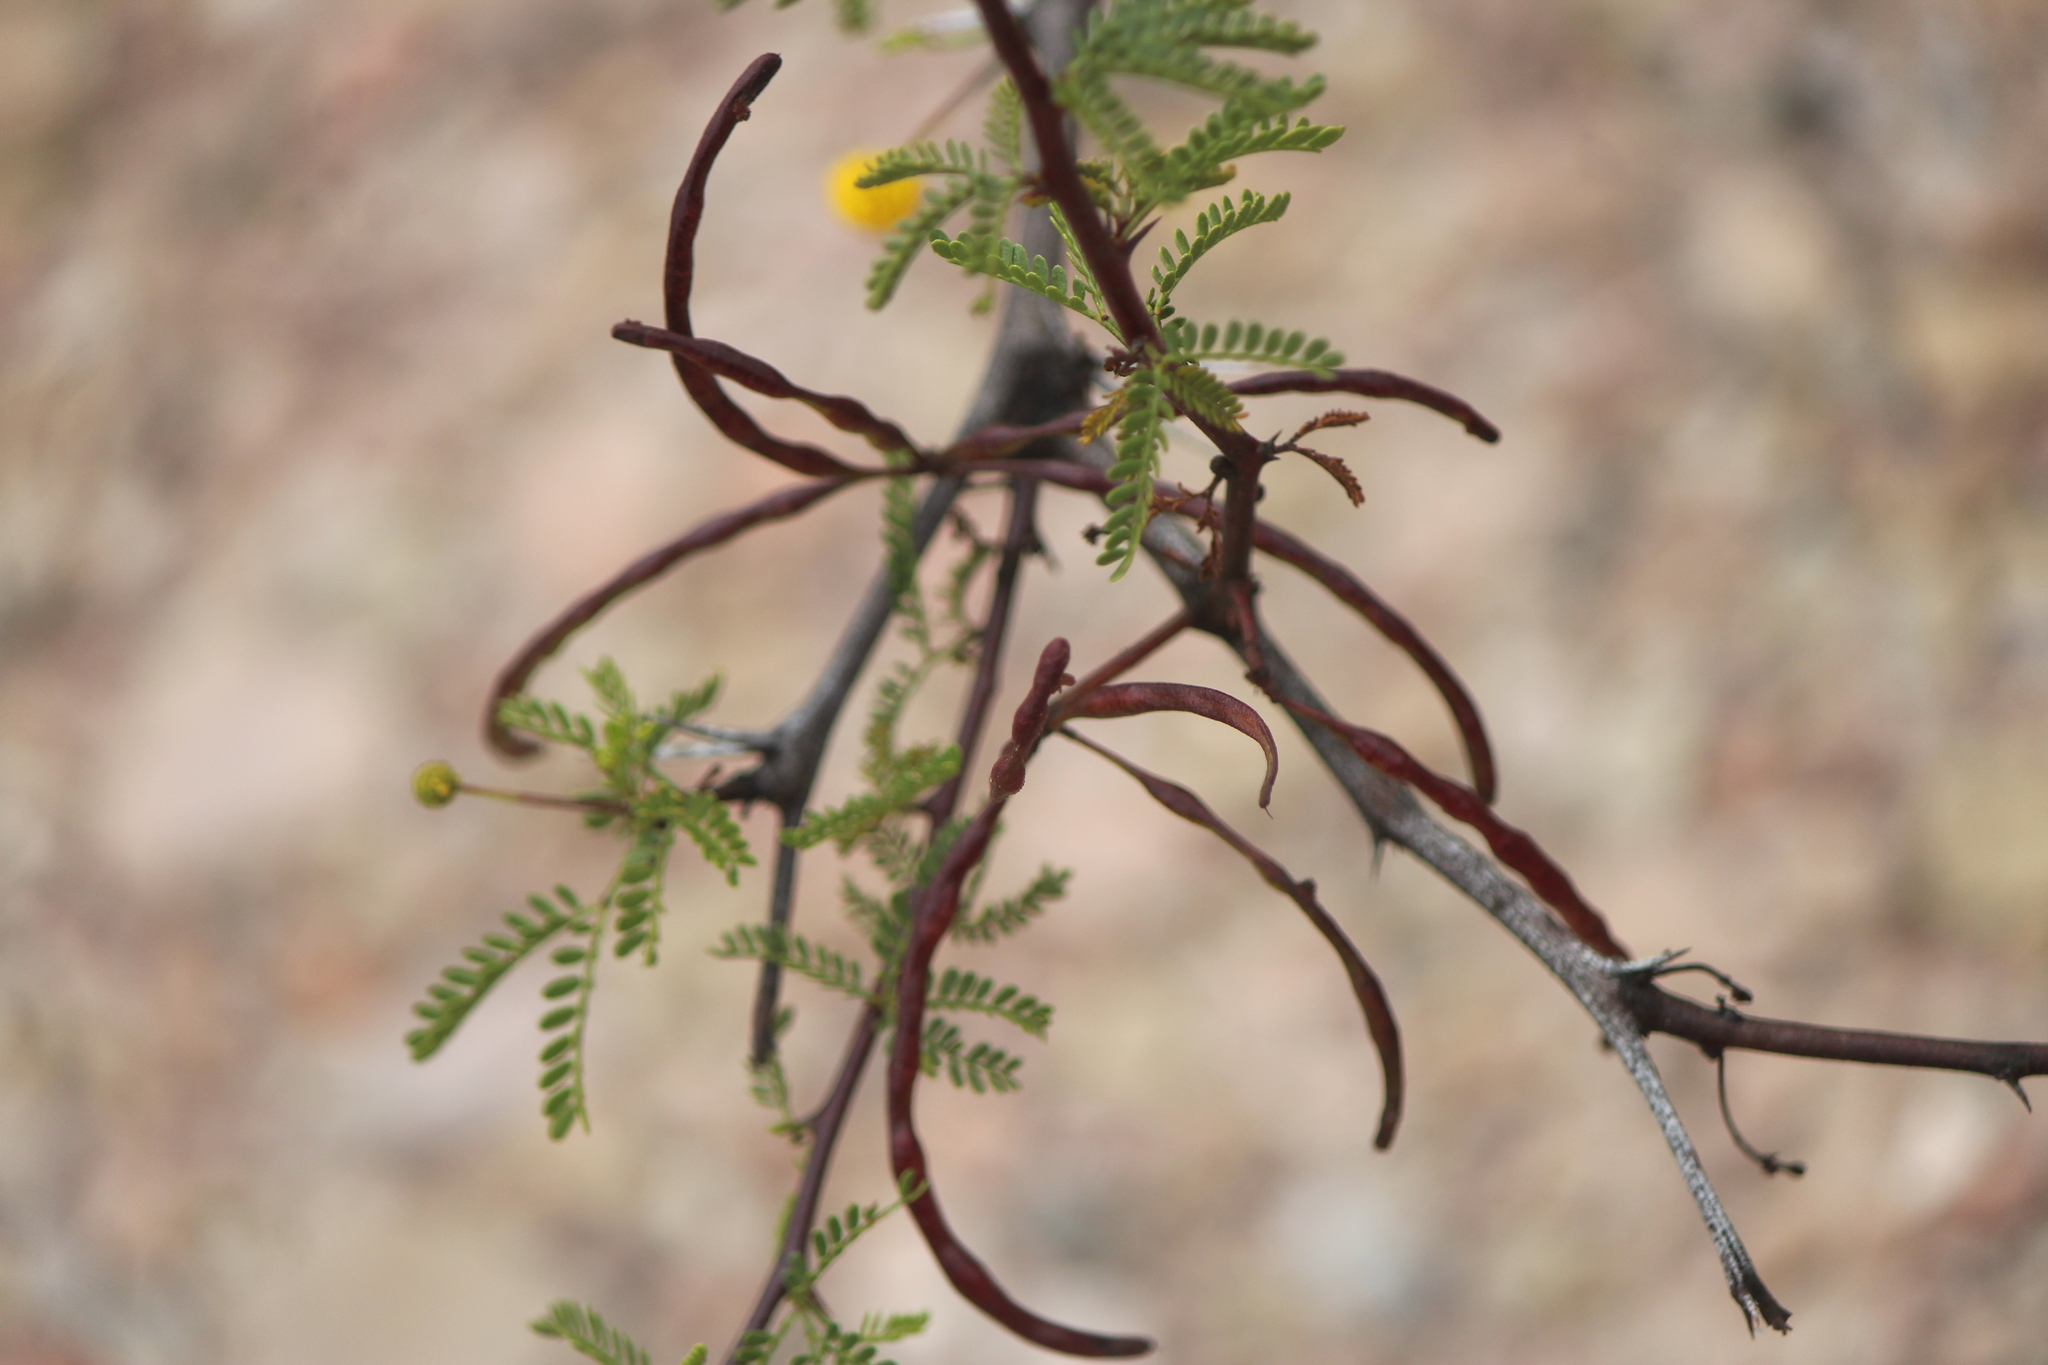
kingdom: Plantae
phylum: Tracheophyta
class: Magnoliopsida
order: Fabales
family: Fabaceae
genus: Vachellia
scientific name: Vachellia constricta
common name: Mescat acacia
